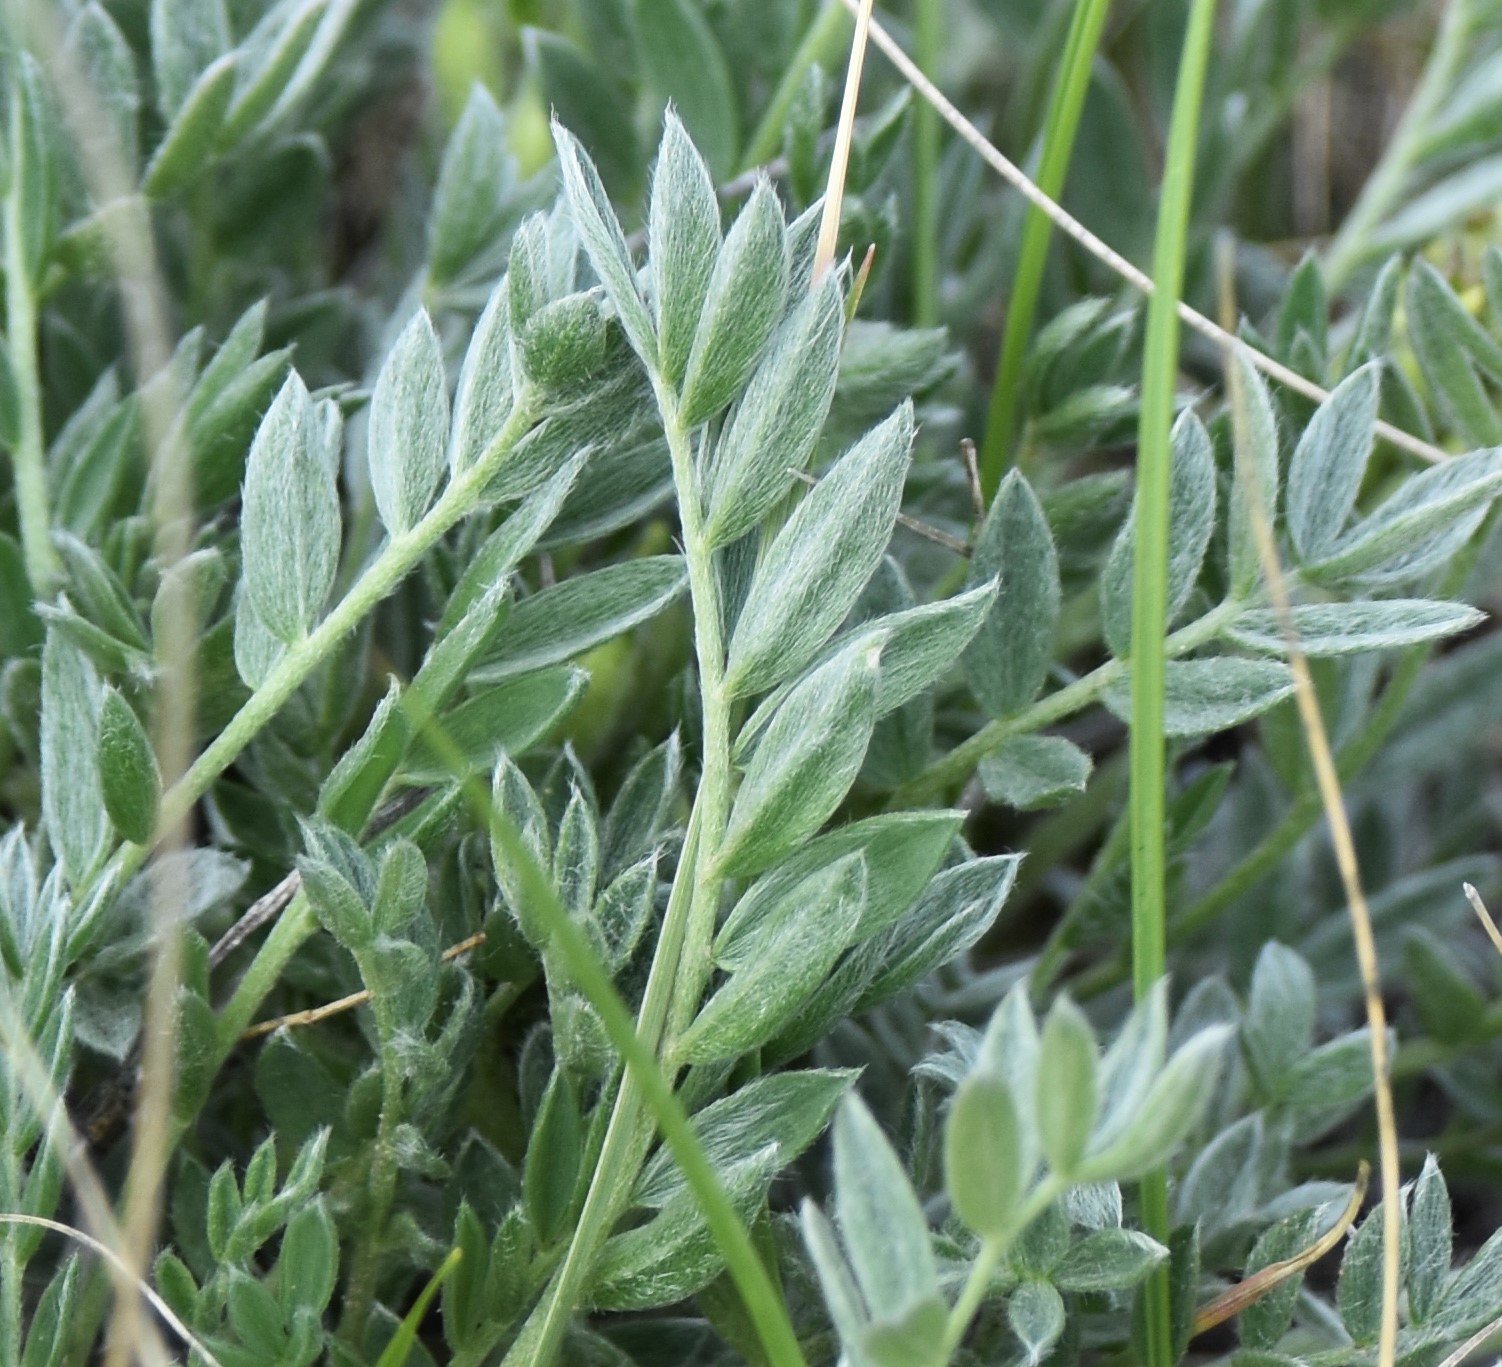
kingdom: Plantae
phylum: Tracheophyta
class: Magnoliopsida
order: Fabales
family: Fabaceae
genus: Oxytropis
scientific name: Oxytropis sericea
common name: Silky locoweed
